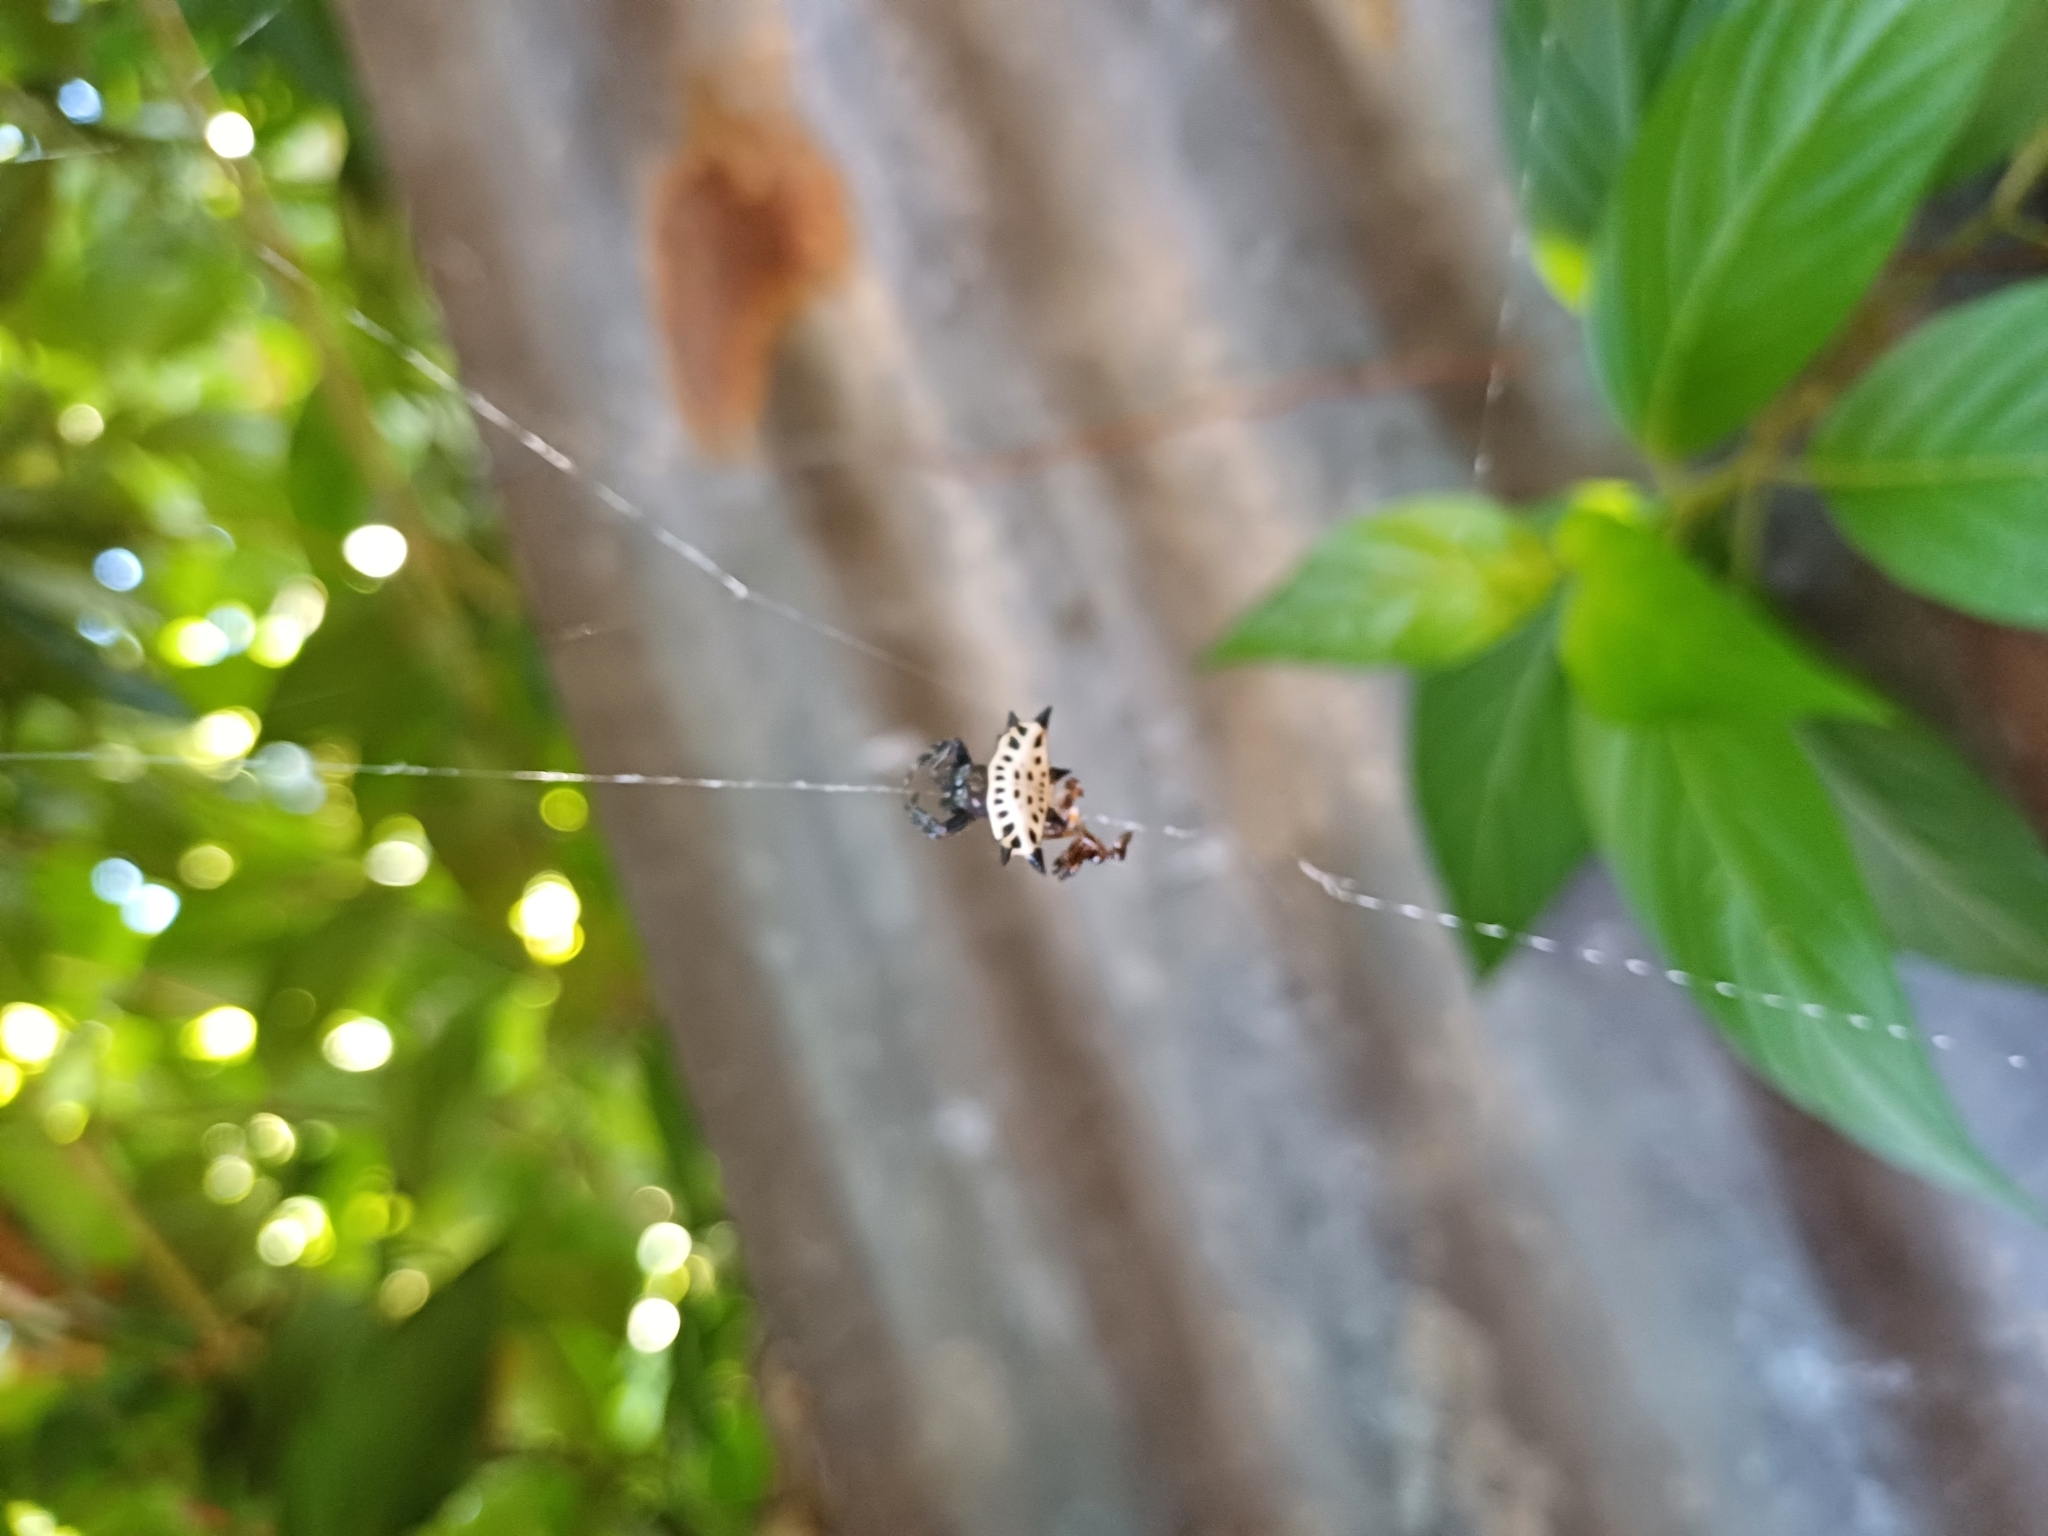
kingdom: Animalia
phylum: Arthropoda
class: Arachnida
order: Araneae
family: Araneidae
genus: Gasteracantha
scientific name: Gasteracantha cancriformis
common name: Orb weavers
